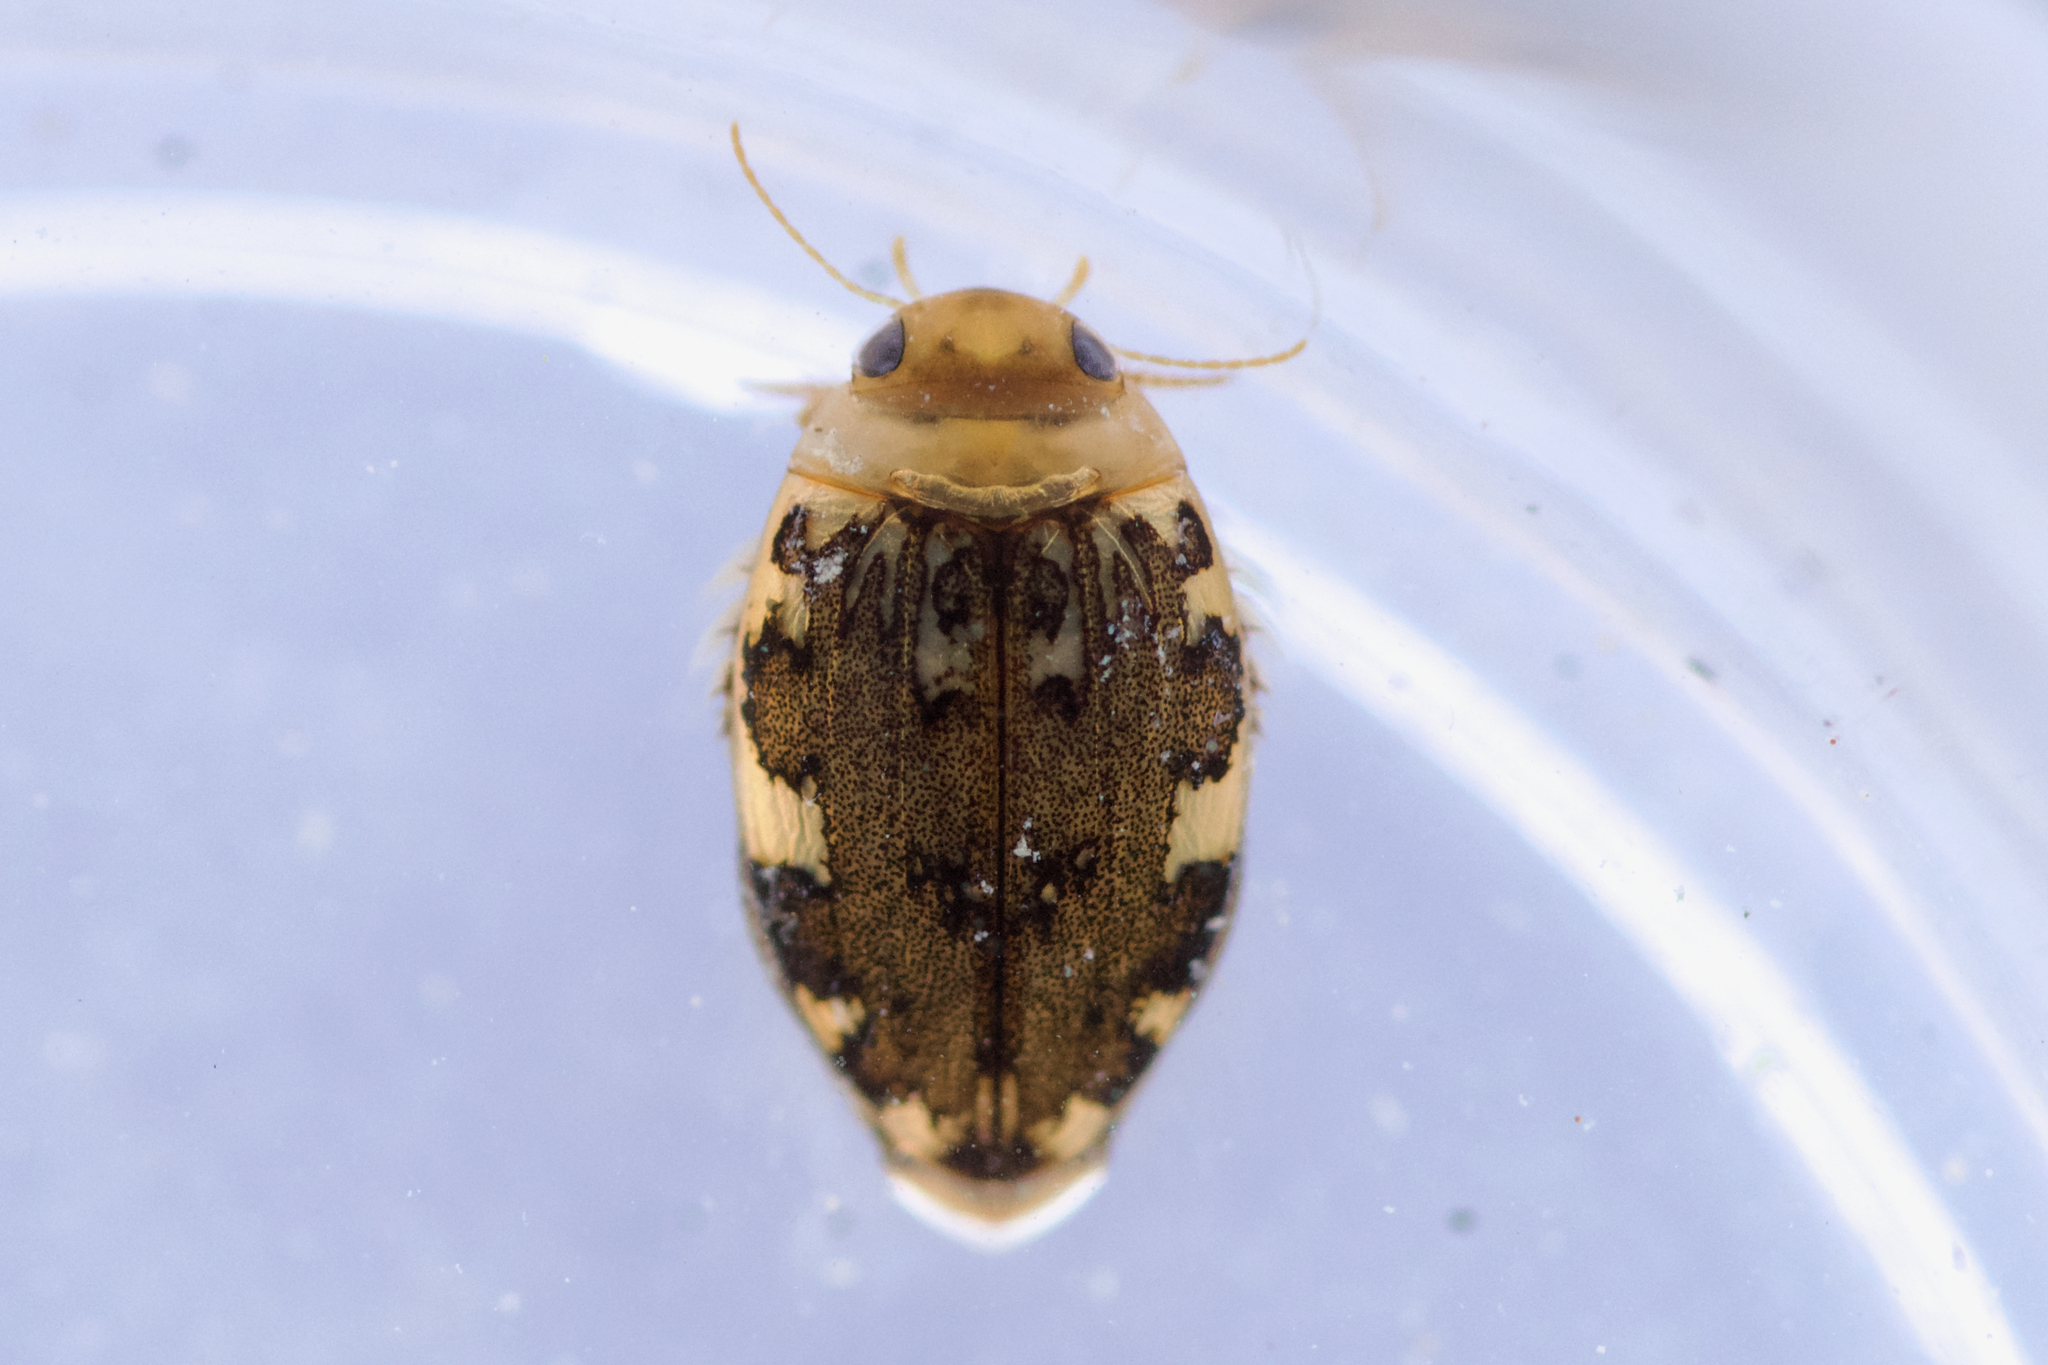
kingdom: Animalia
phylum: Arthropoda
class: Insecta
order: Coleoptera
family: Dytiscidae
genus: Laccophilus
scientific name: Laccophilus maculosus
